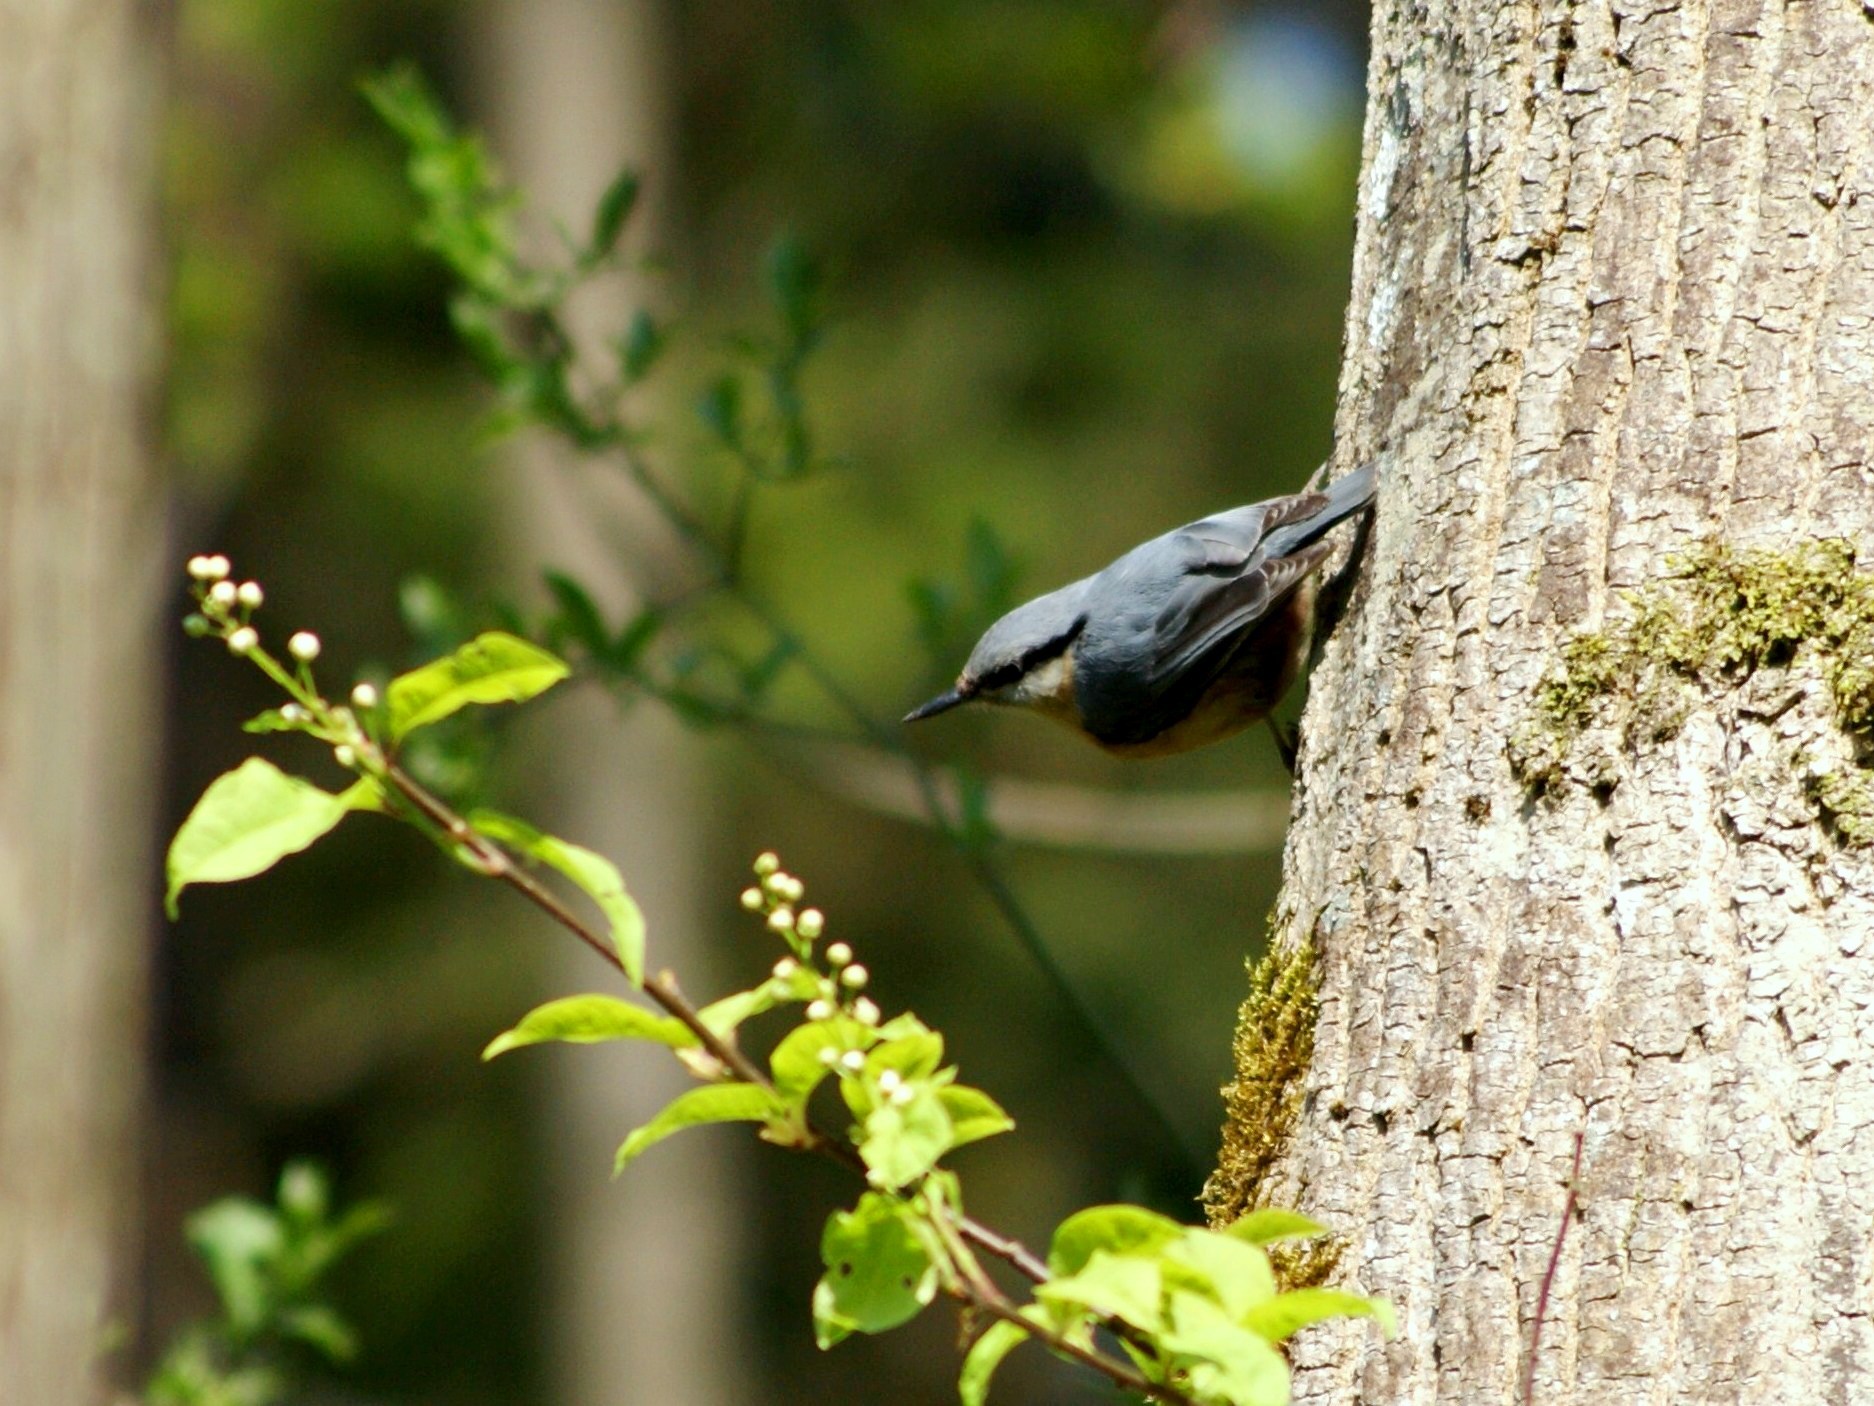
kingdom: Animalia
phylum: Chordata
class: Aves
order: Passeriformes
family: Sittidae
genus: Sitta
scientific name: Sitta europaea
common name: Eurasian nuthatch
